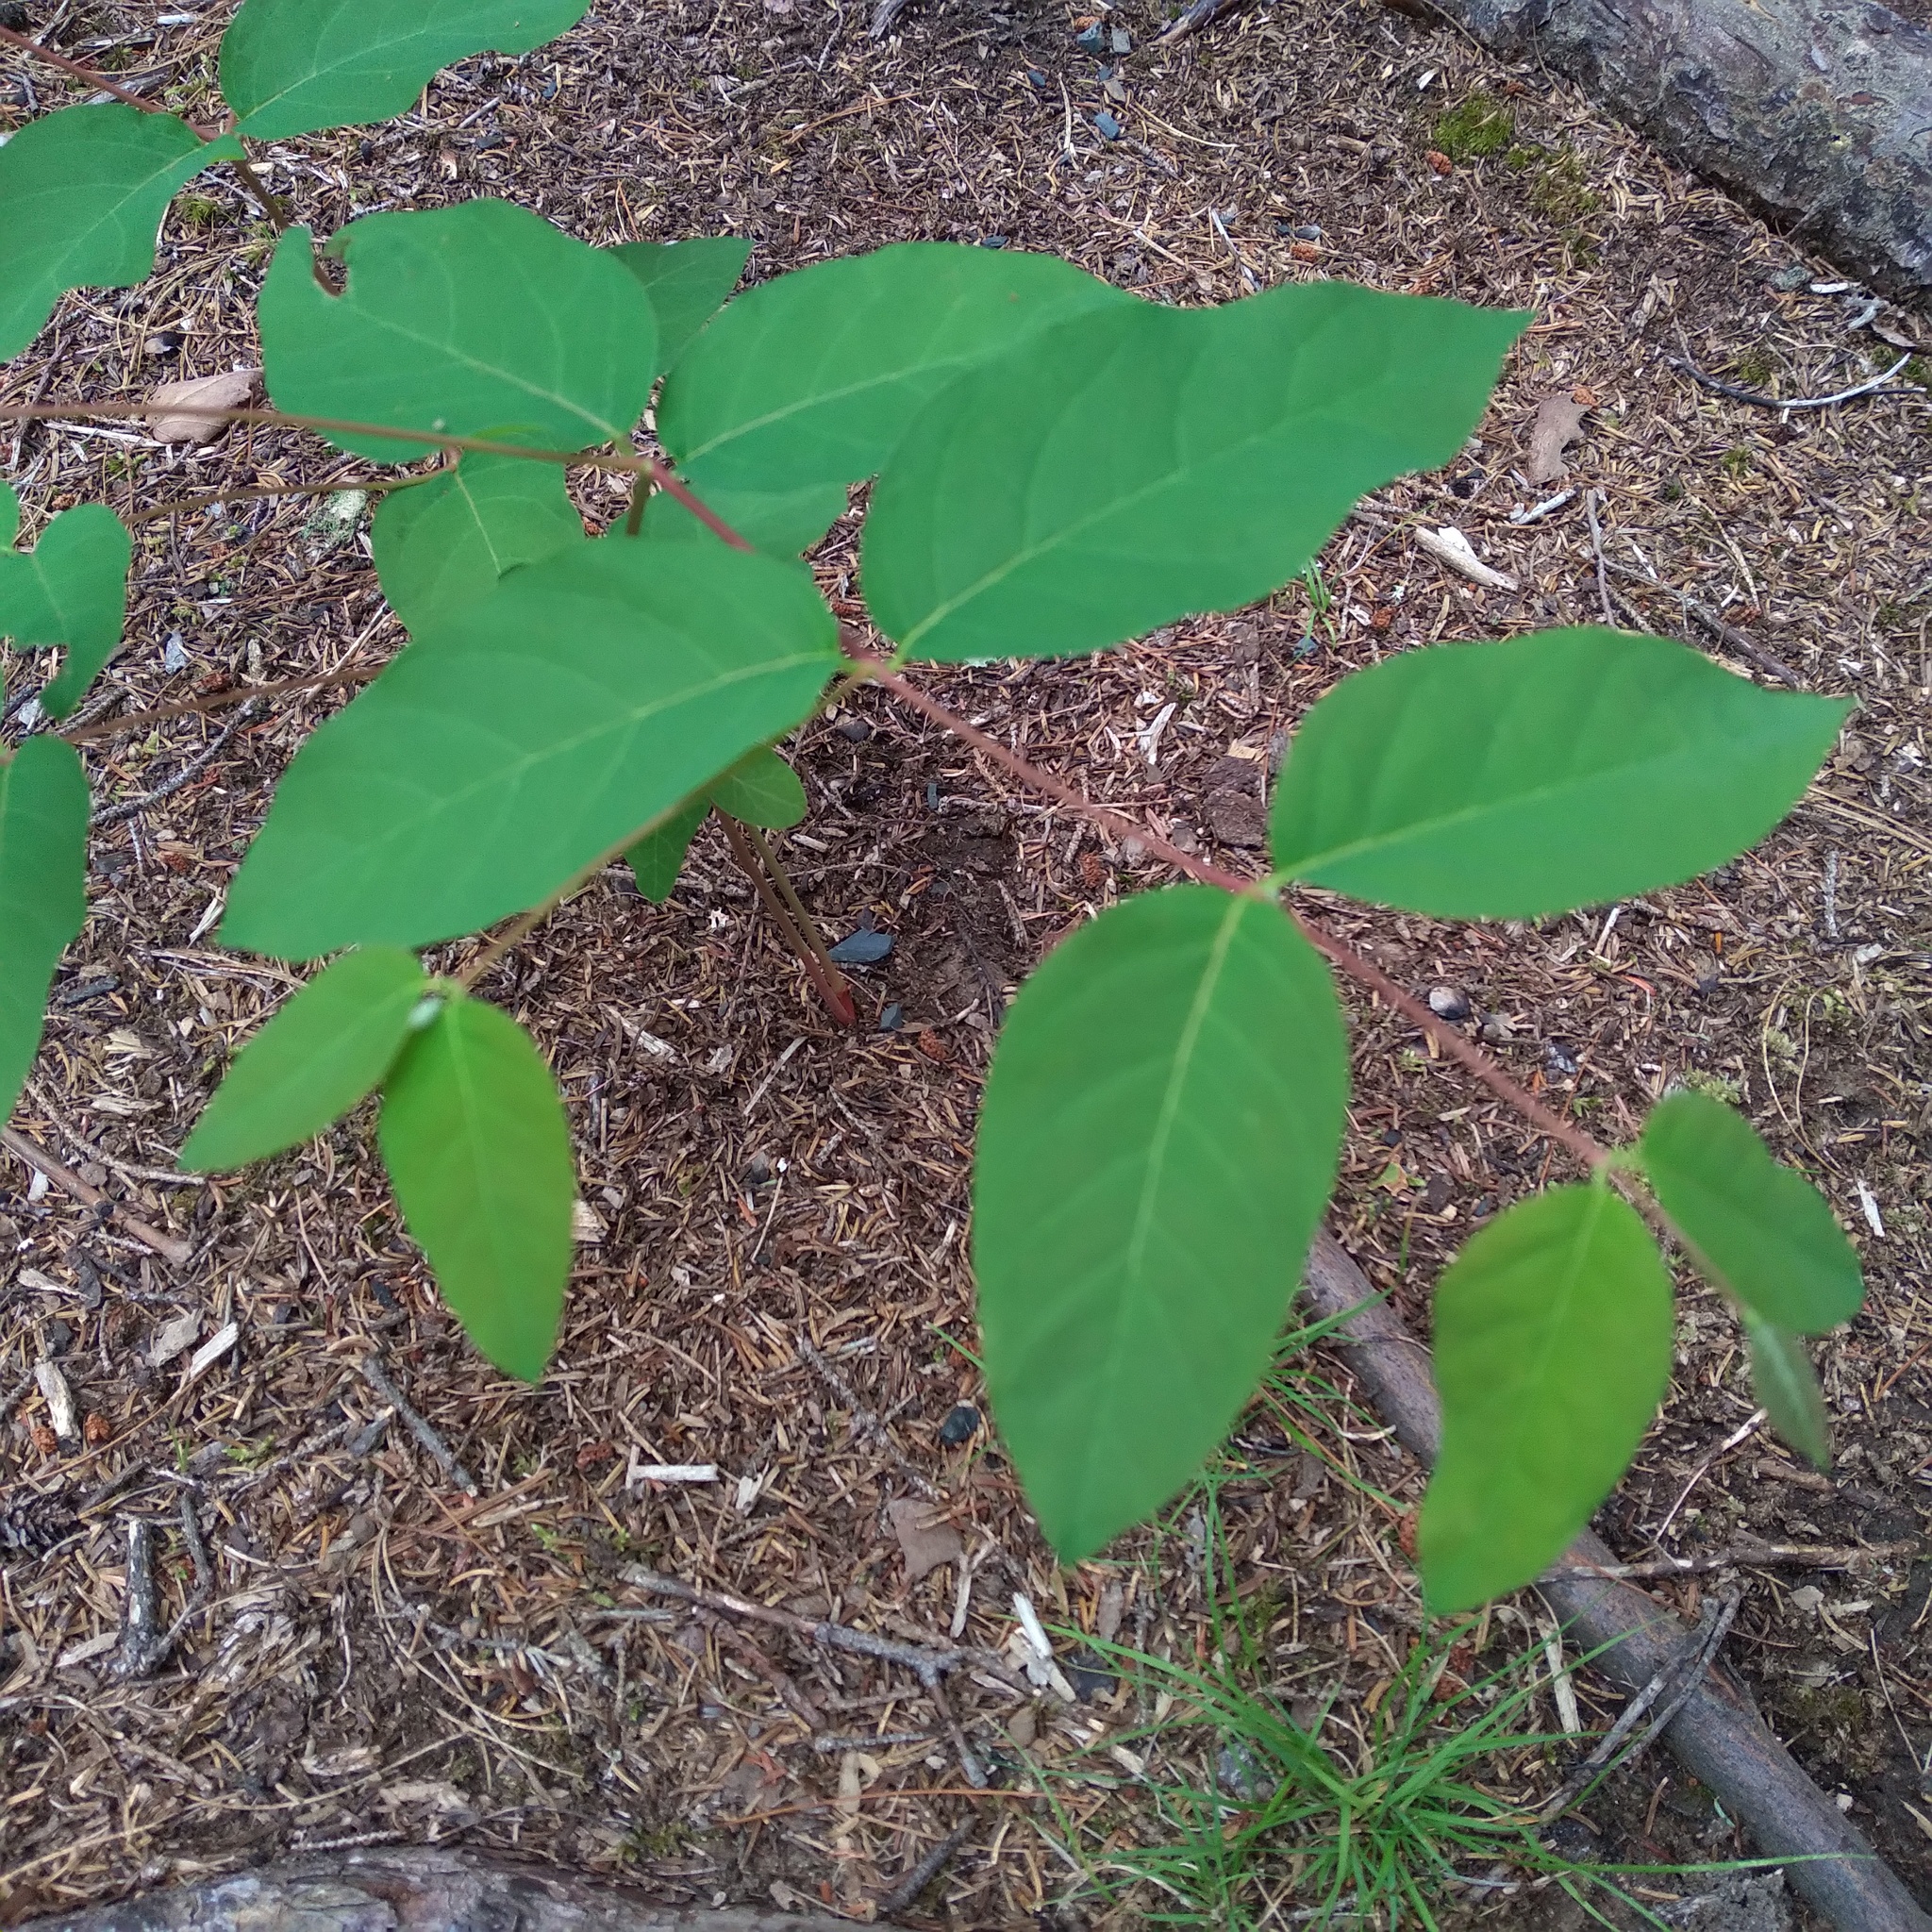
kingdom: Plantae
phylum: Tracheophyta
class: Magnoliopsida
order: Gentianales
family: Apocynaceae
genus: Apocynum
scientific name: Apocynum androsaemifolium
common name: Spreading dogbane
